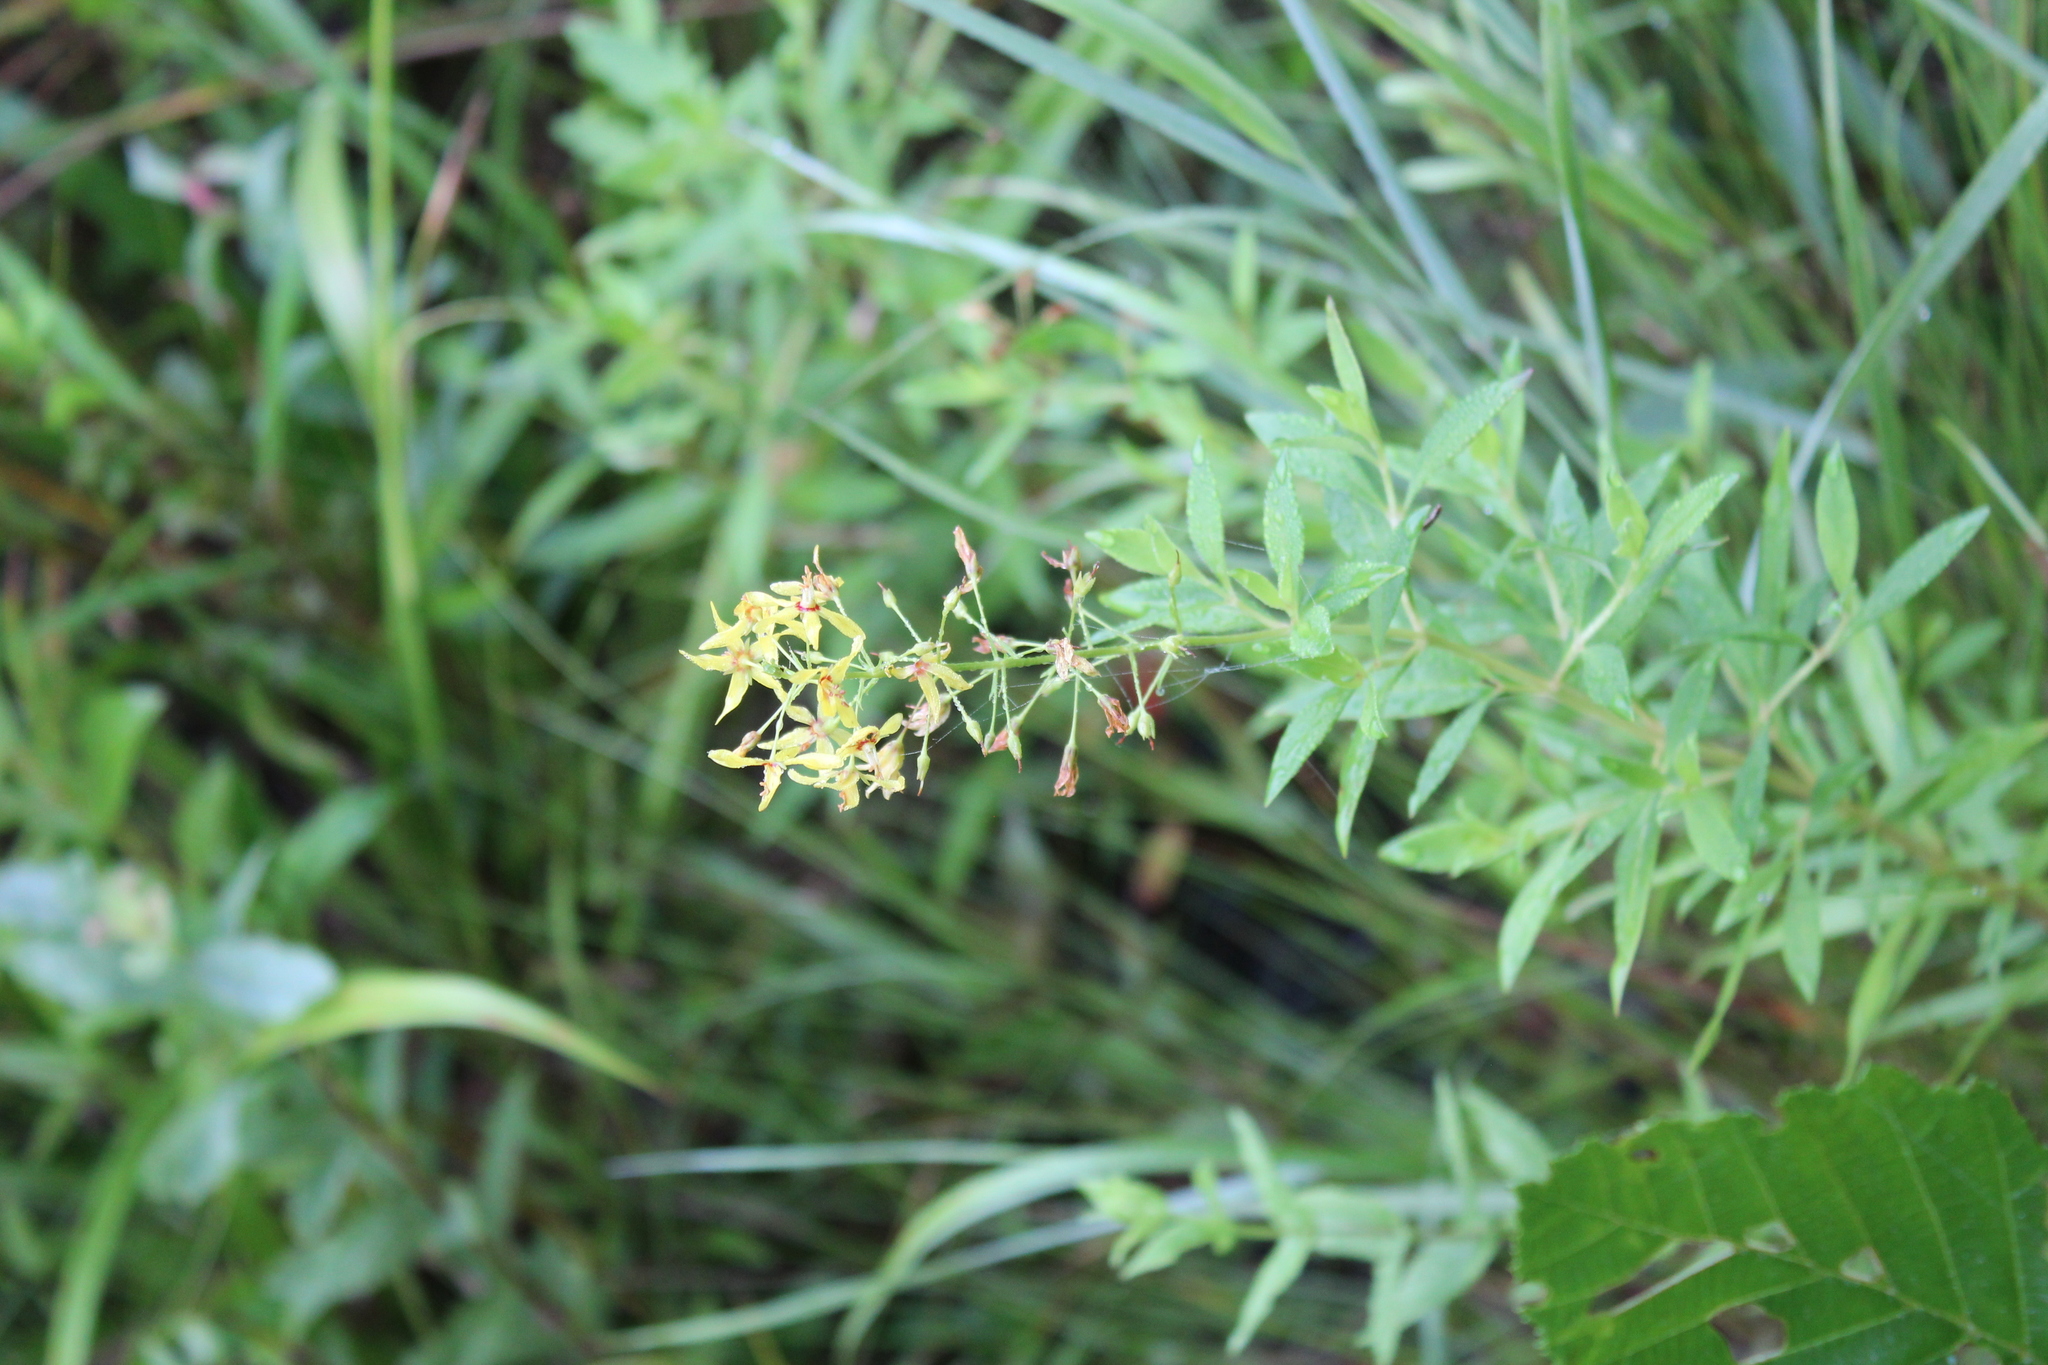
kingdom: Plantae
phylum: Tracheophyta
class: Magnoliopsida
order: Ericales
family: Primulaceae
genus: Lysimachia
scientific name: Lysimachia terrestris
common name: Lake loosestrife
